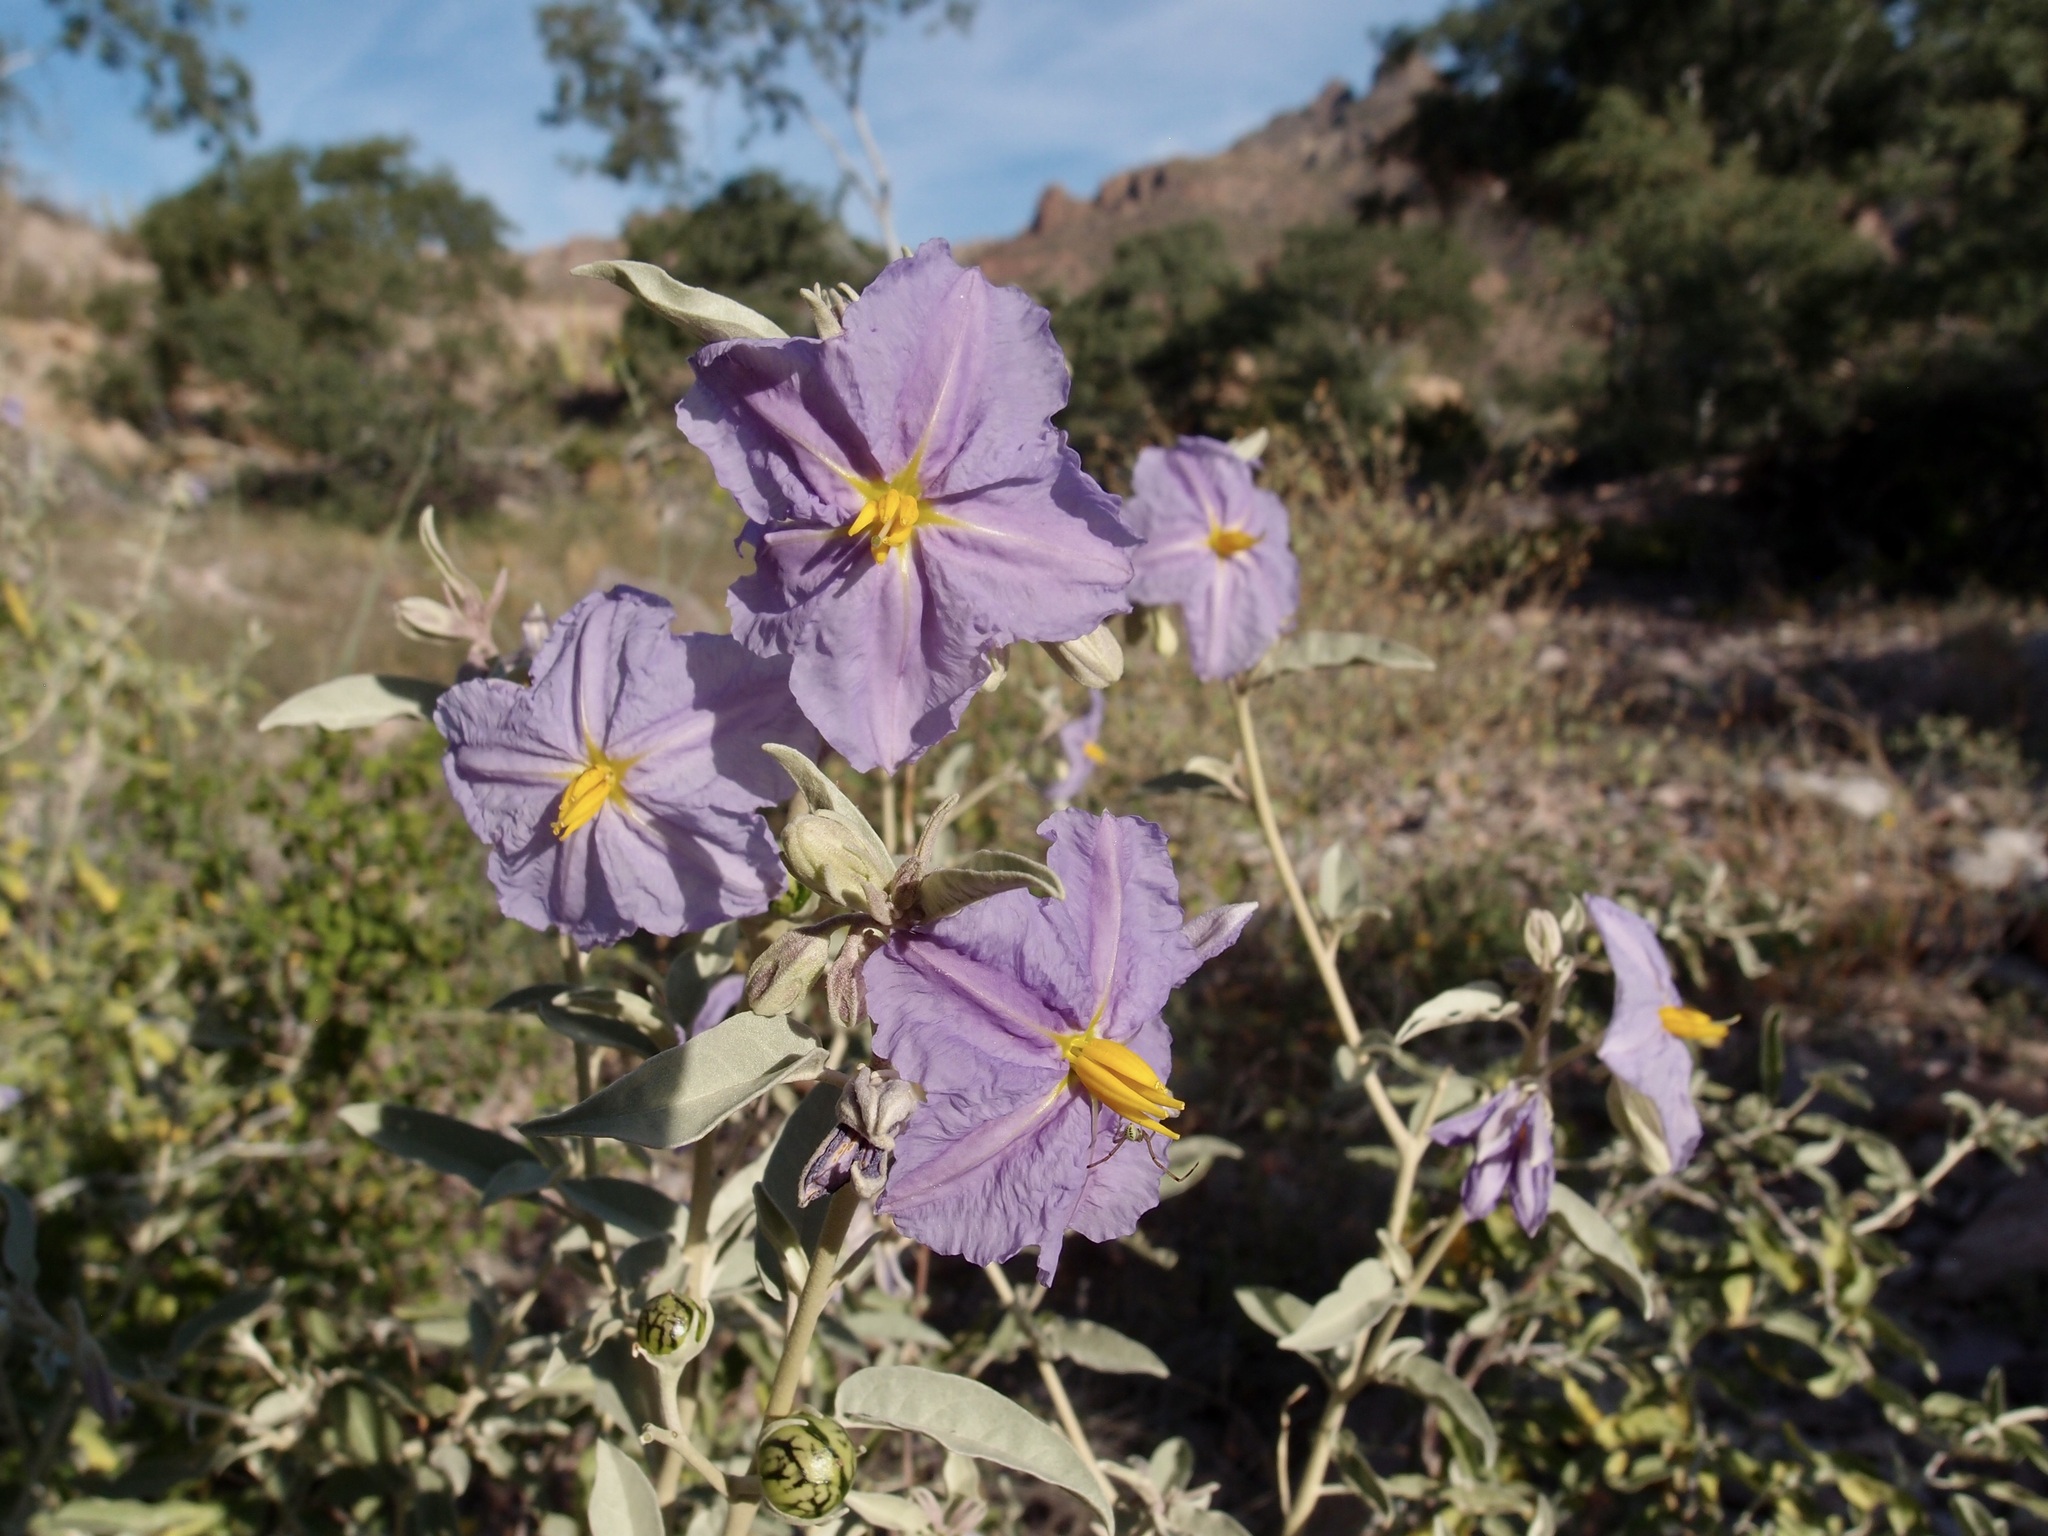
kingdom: Plantae
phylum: Tracheophyta
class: Magnoliopsida
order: Solanales
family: Solanaceae
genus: Solanum
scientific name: Solanum hindsianum
